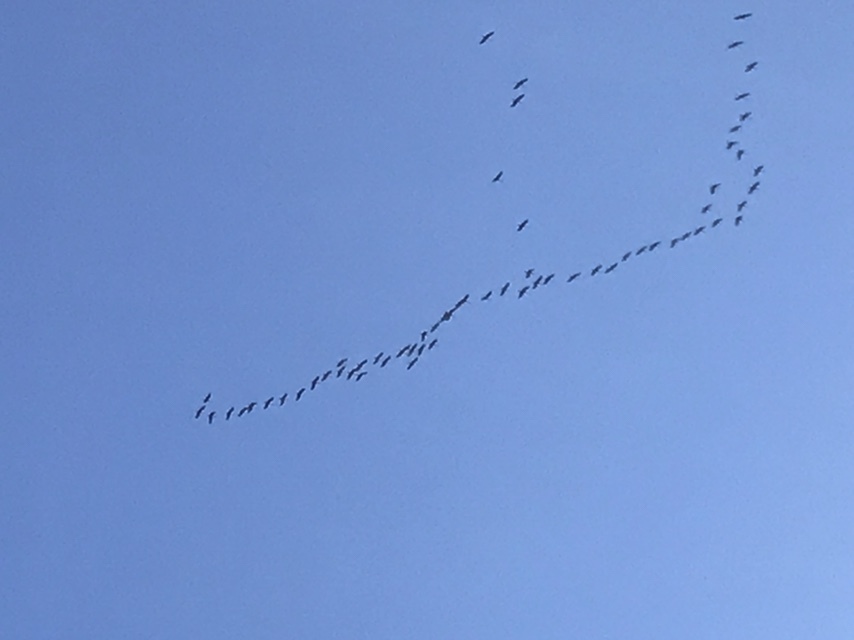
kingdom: Animalia
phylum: Chordata
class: Aves
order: Gruiformes
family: Gruidae
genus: Grus
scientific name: Grus canadensis
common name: Sandhill crane
